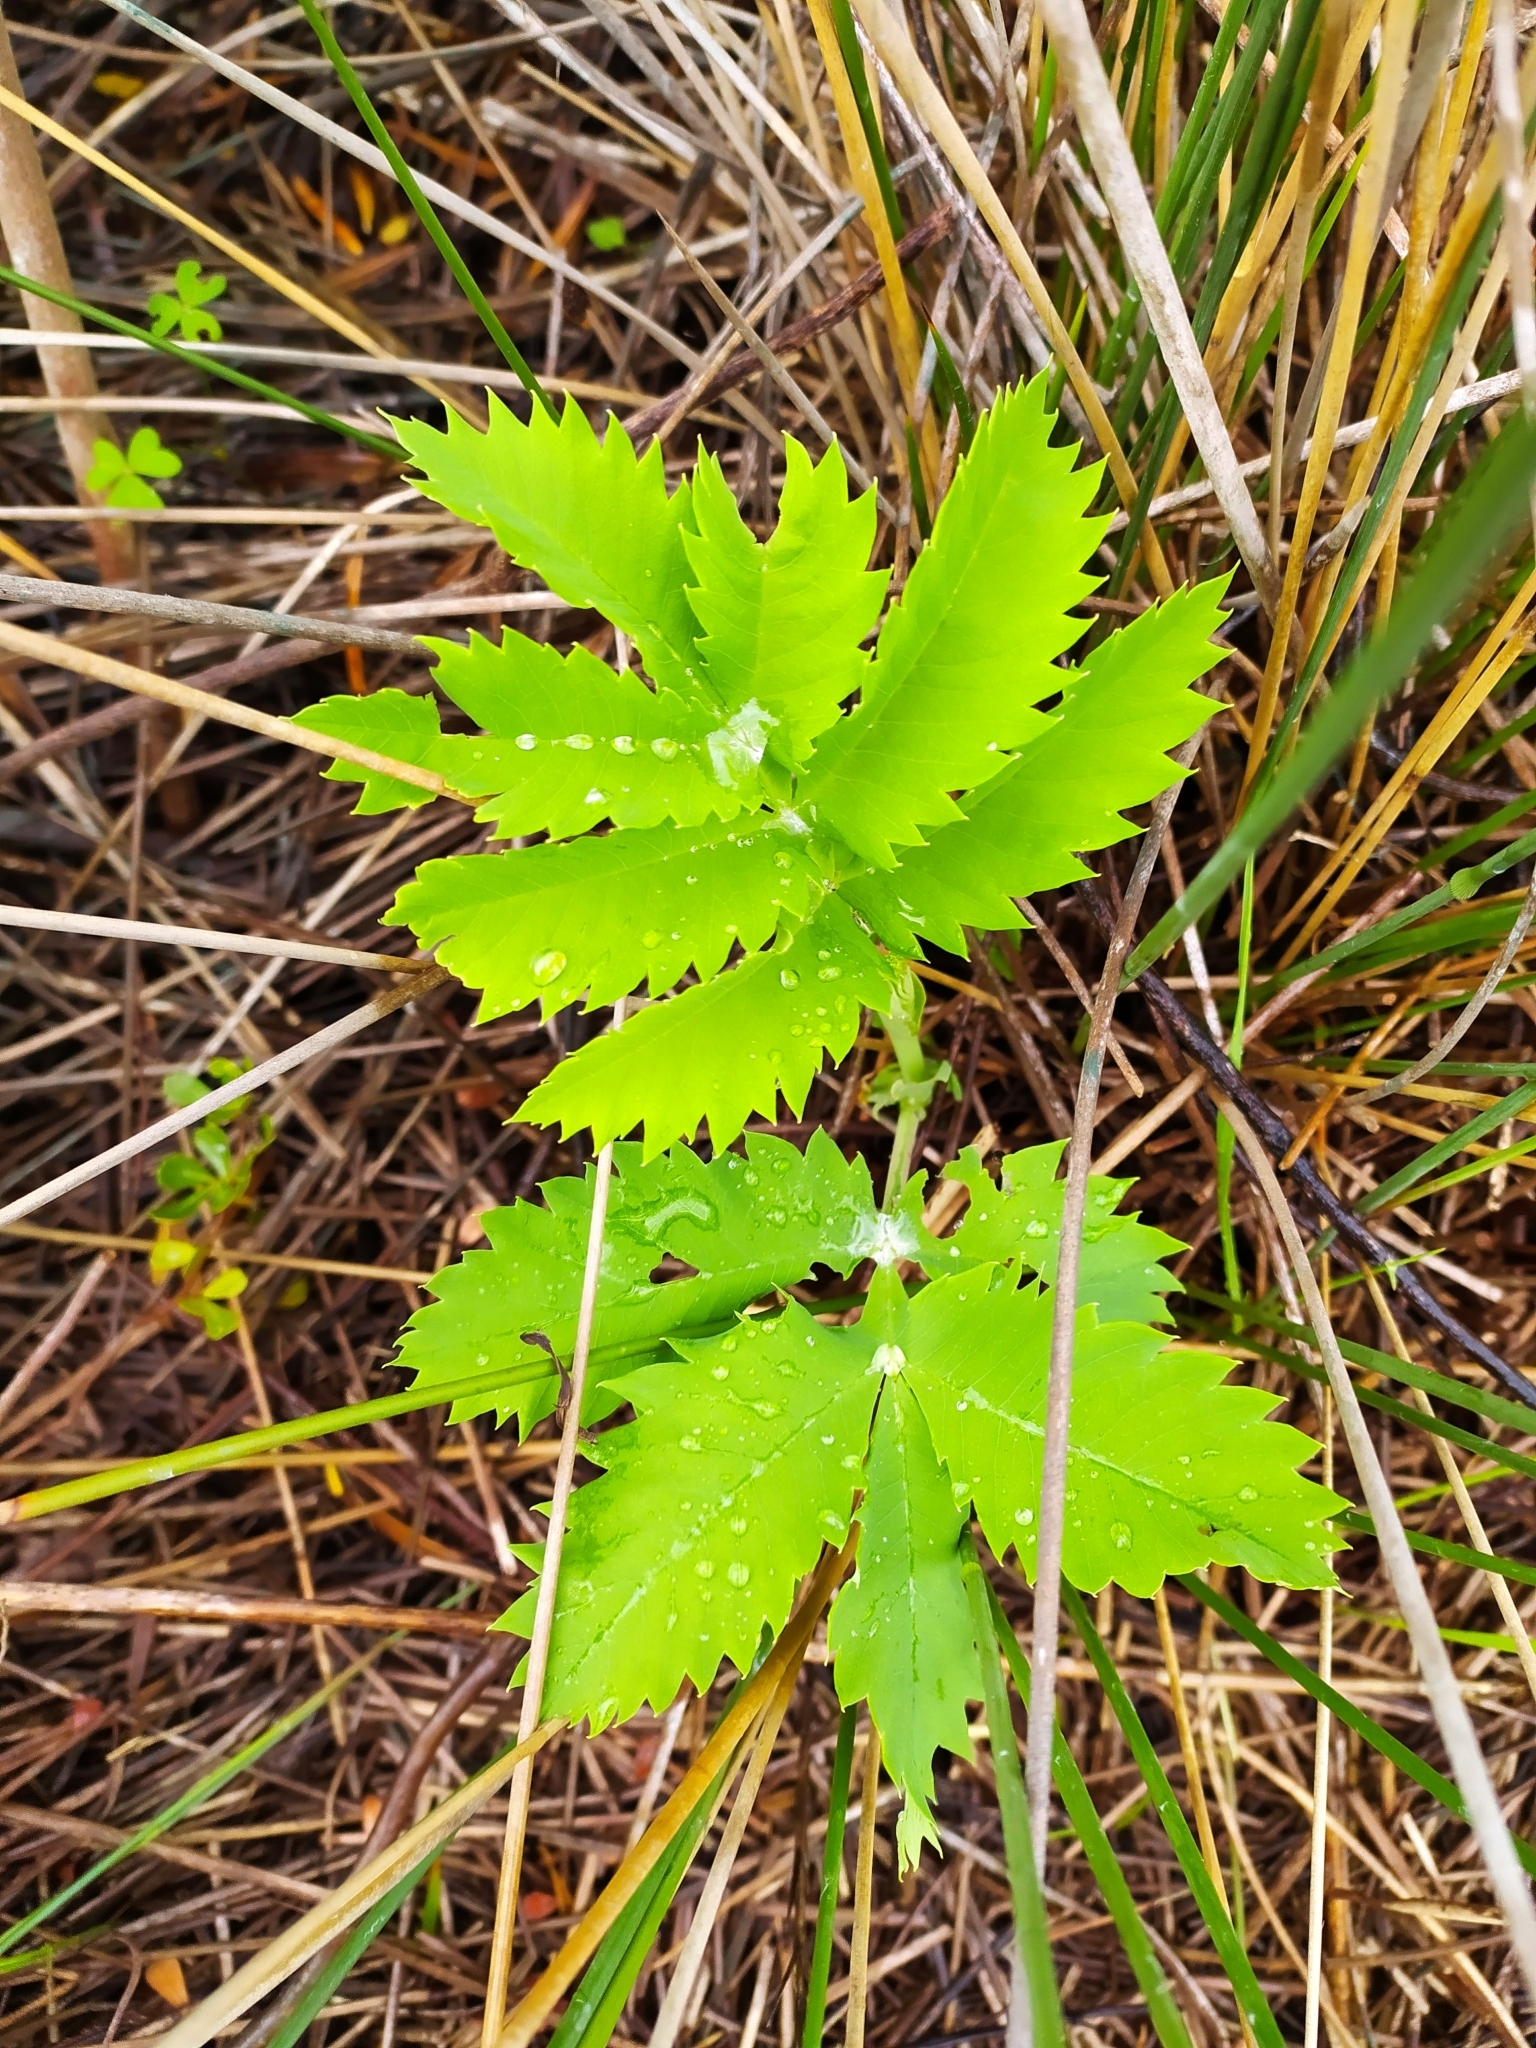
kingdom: Plantae
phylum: Tracheophyta
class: Magnoliopsida
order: Geraniales
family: Melianthaceae
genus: Melianthus
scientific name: Melianthus major
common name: Honey-flower
